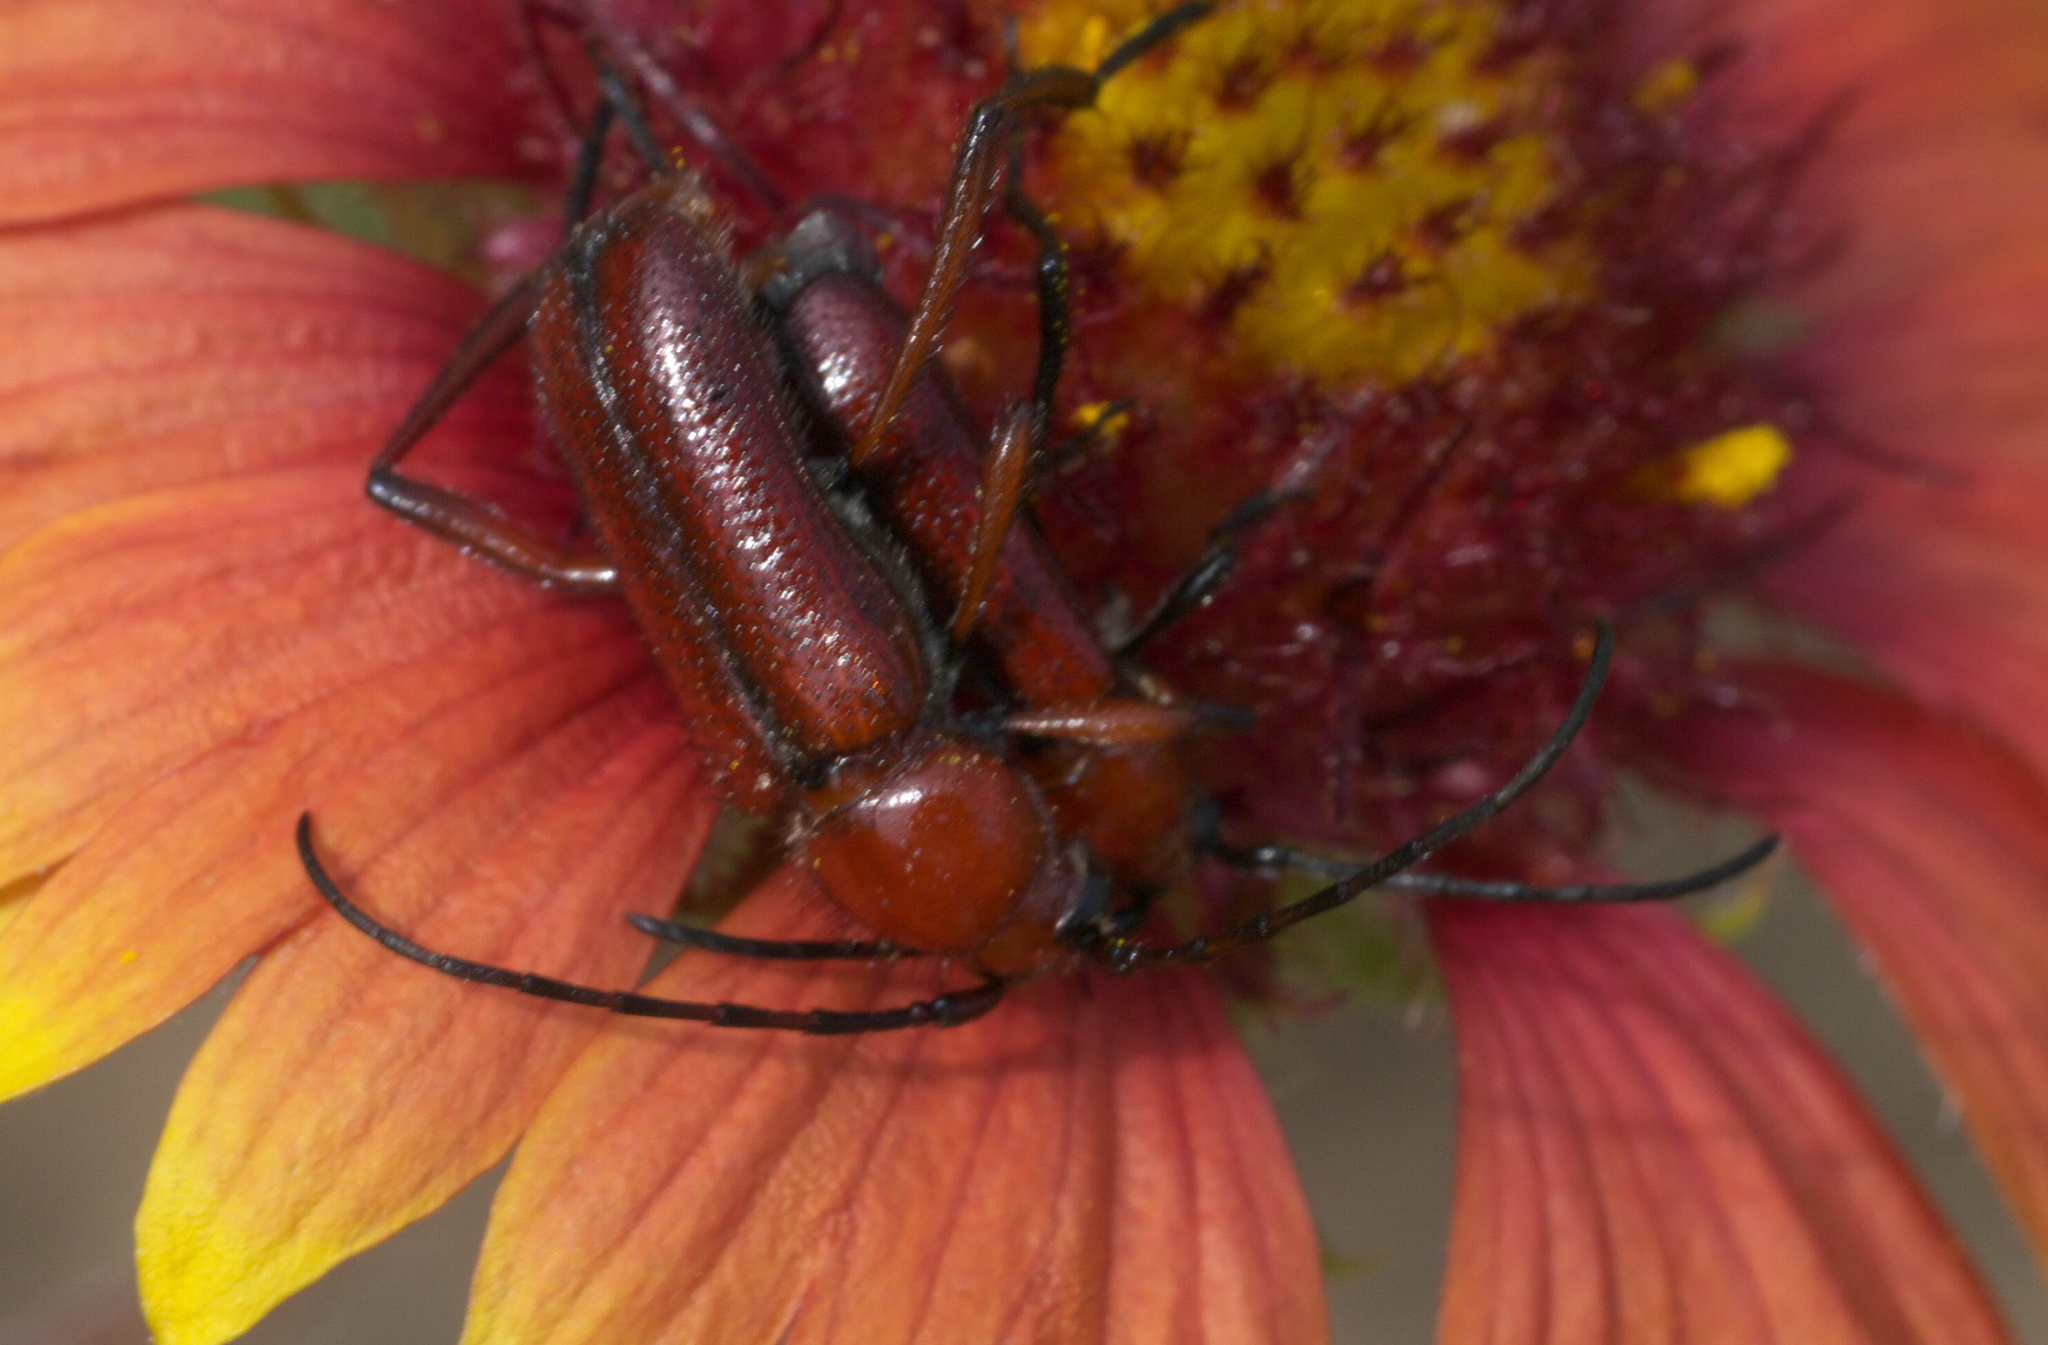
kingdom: Animalia
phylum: Arthropoda
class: Insecta
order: Coleoptera
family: Cerambycidae
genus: Batyle
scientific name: Batyle suturalis
